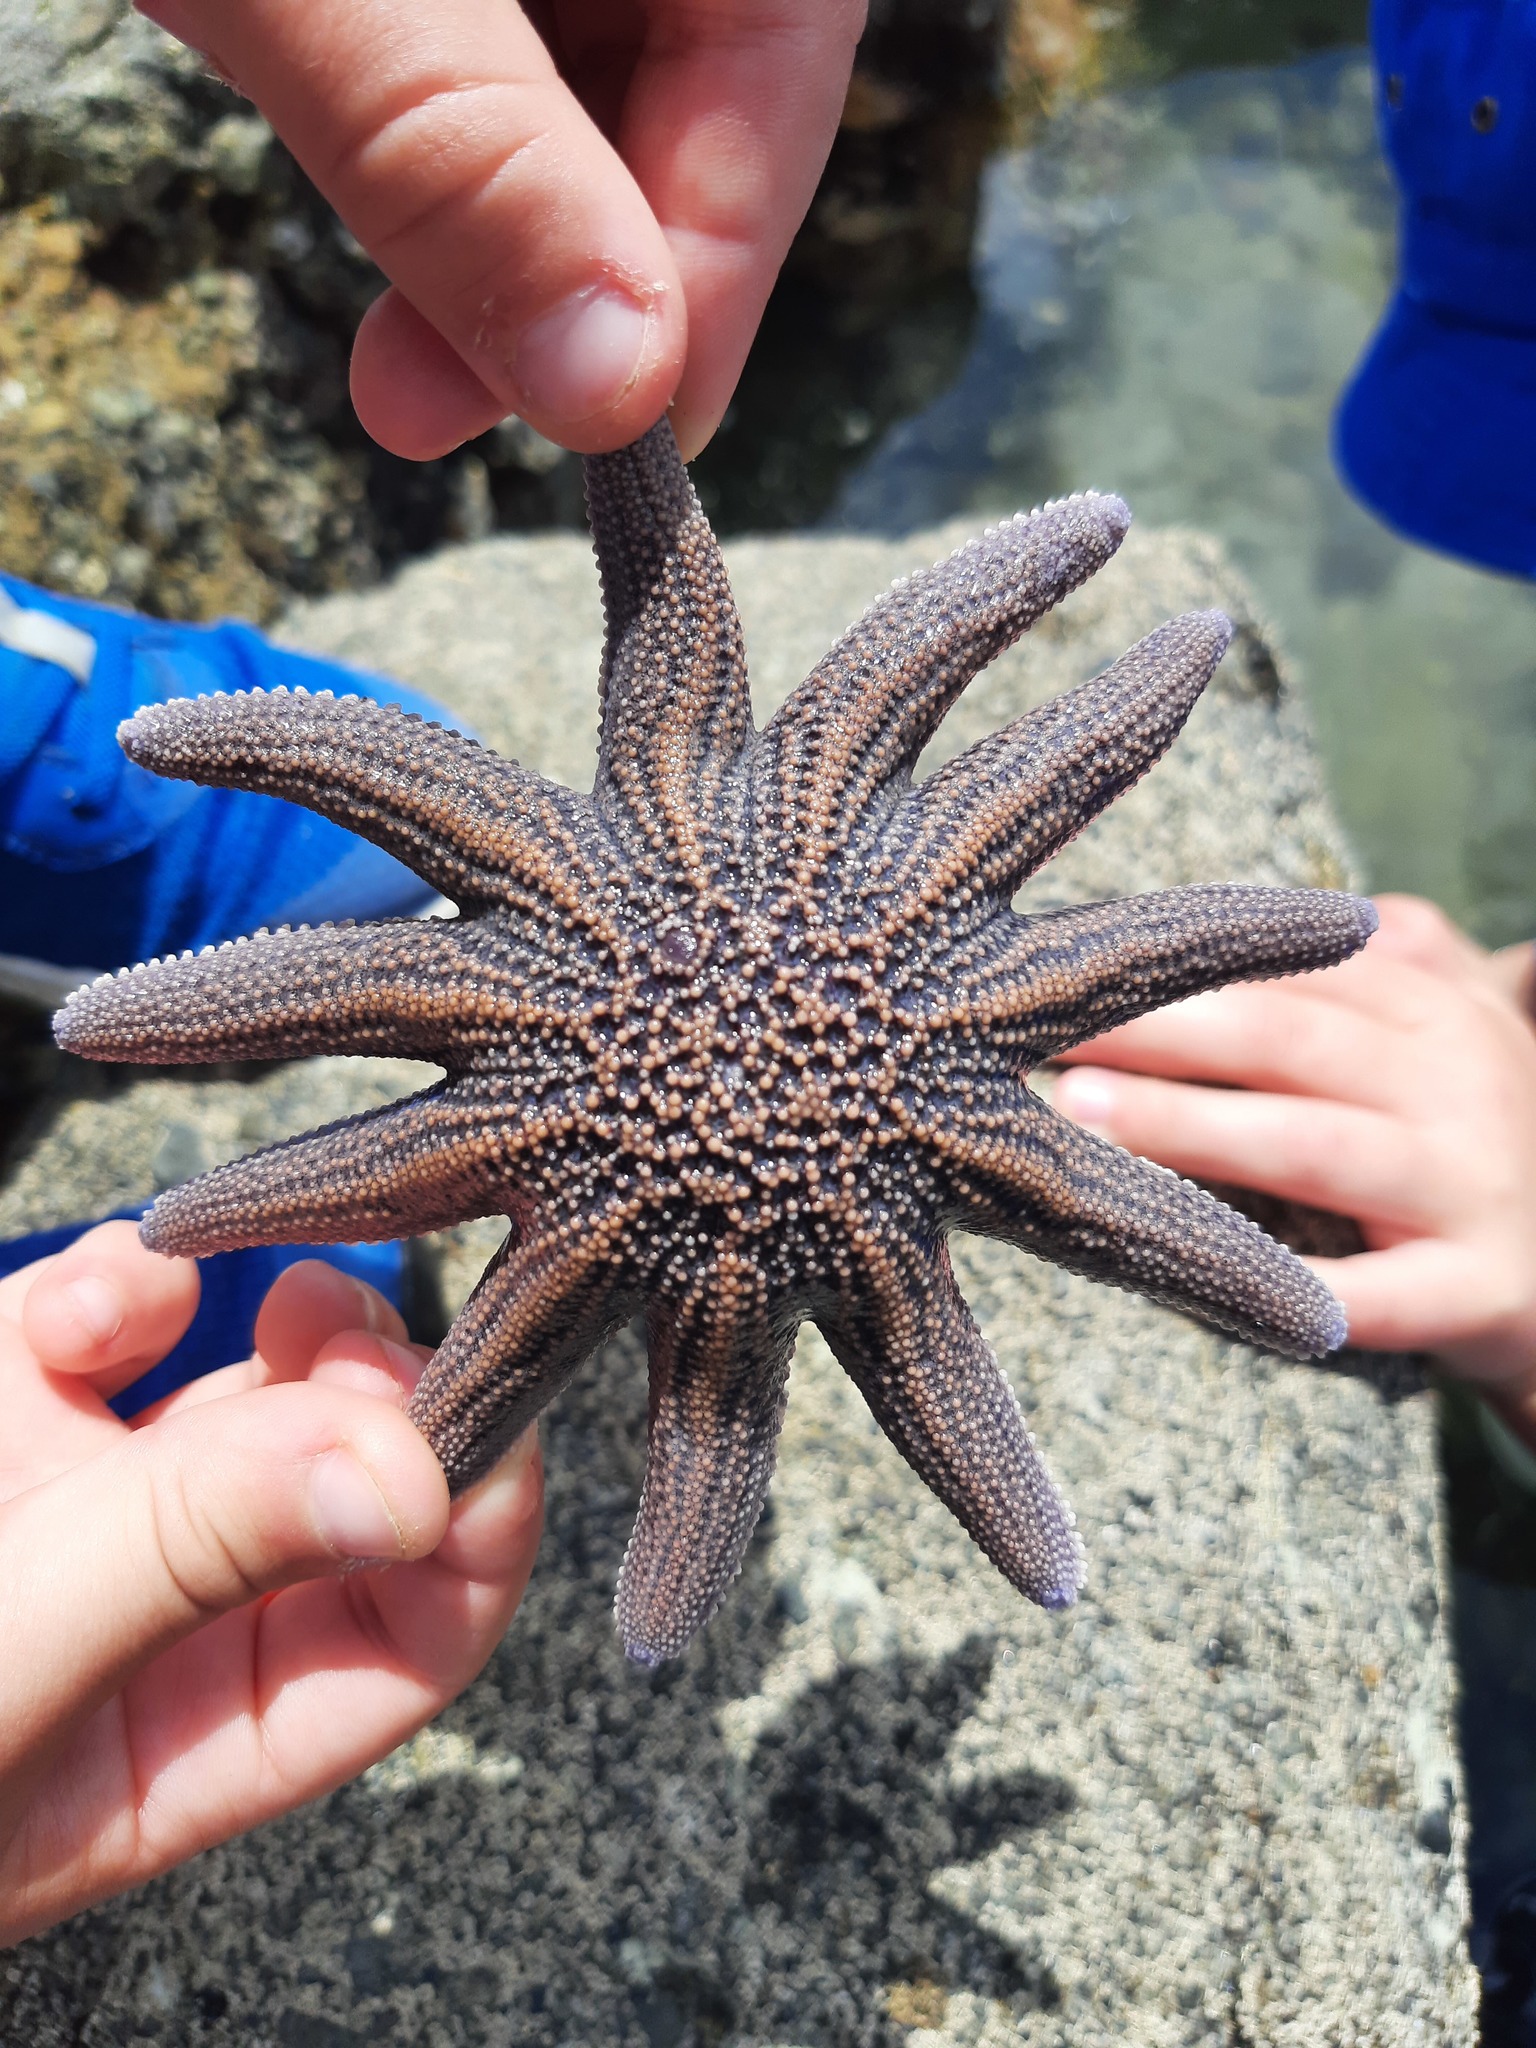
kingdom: Animalia
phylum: Echinodermata
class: Asteroidea
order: Forcipulatida
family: Stichasteridae
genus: Stichaster
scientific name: Stichaster australis
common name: Reef starfish
